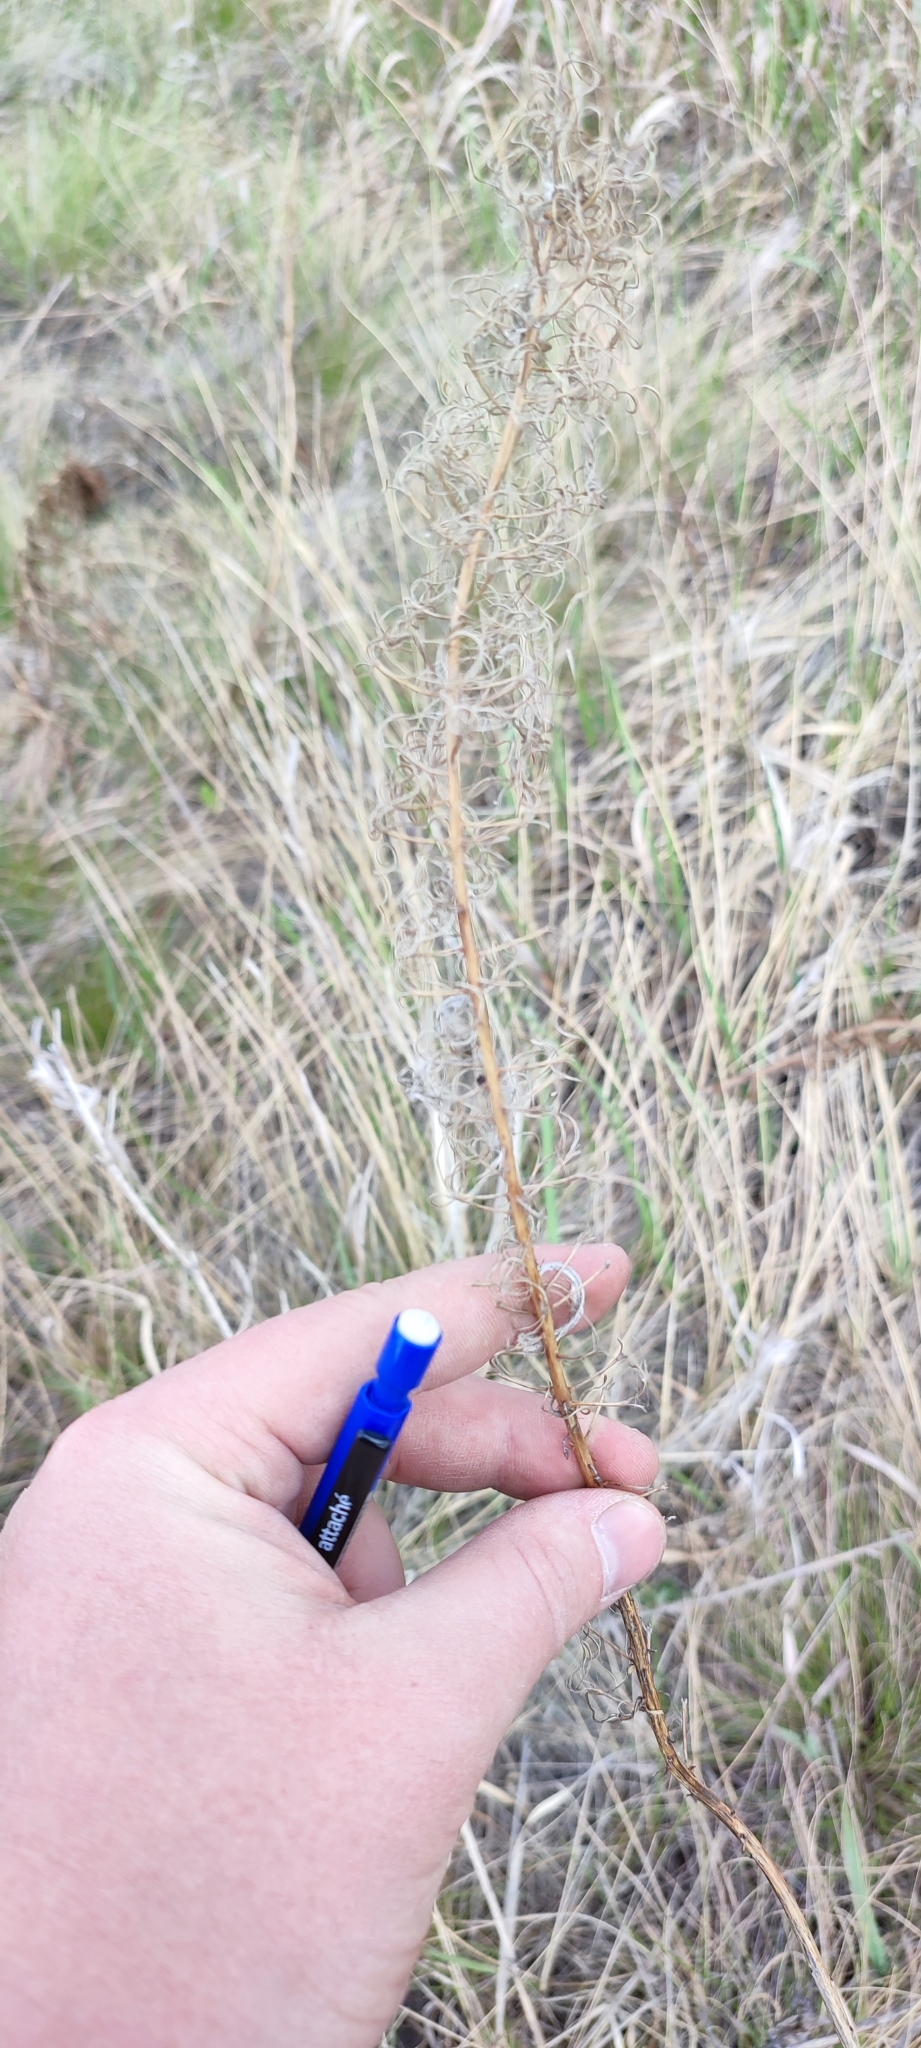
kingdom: Plantae
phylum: Tracheophyta
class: Magnoliopsida
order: Myrtales
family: Onagraceae
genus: Chamaenerion
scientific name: Chamaenerion angustifolium
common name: Fireweed
